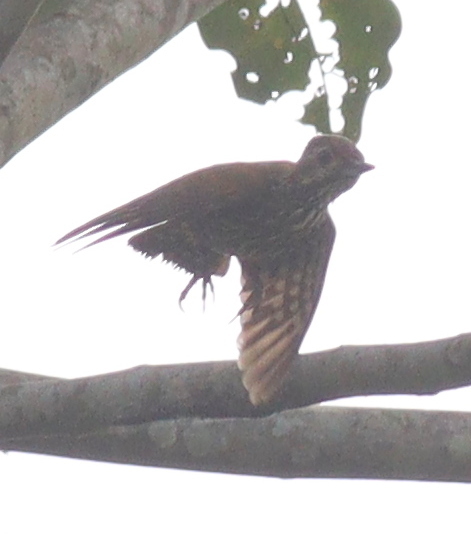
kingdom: Animalia
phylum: Chordata
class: Aves
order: Piciformes
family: Picidae
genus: Dendropicos
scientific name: Dendropicos lugubris
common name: Melancholy woodpecker
